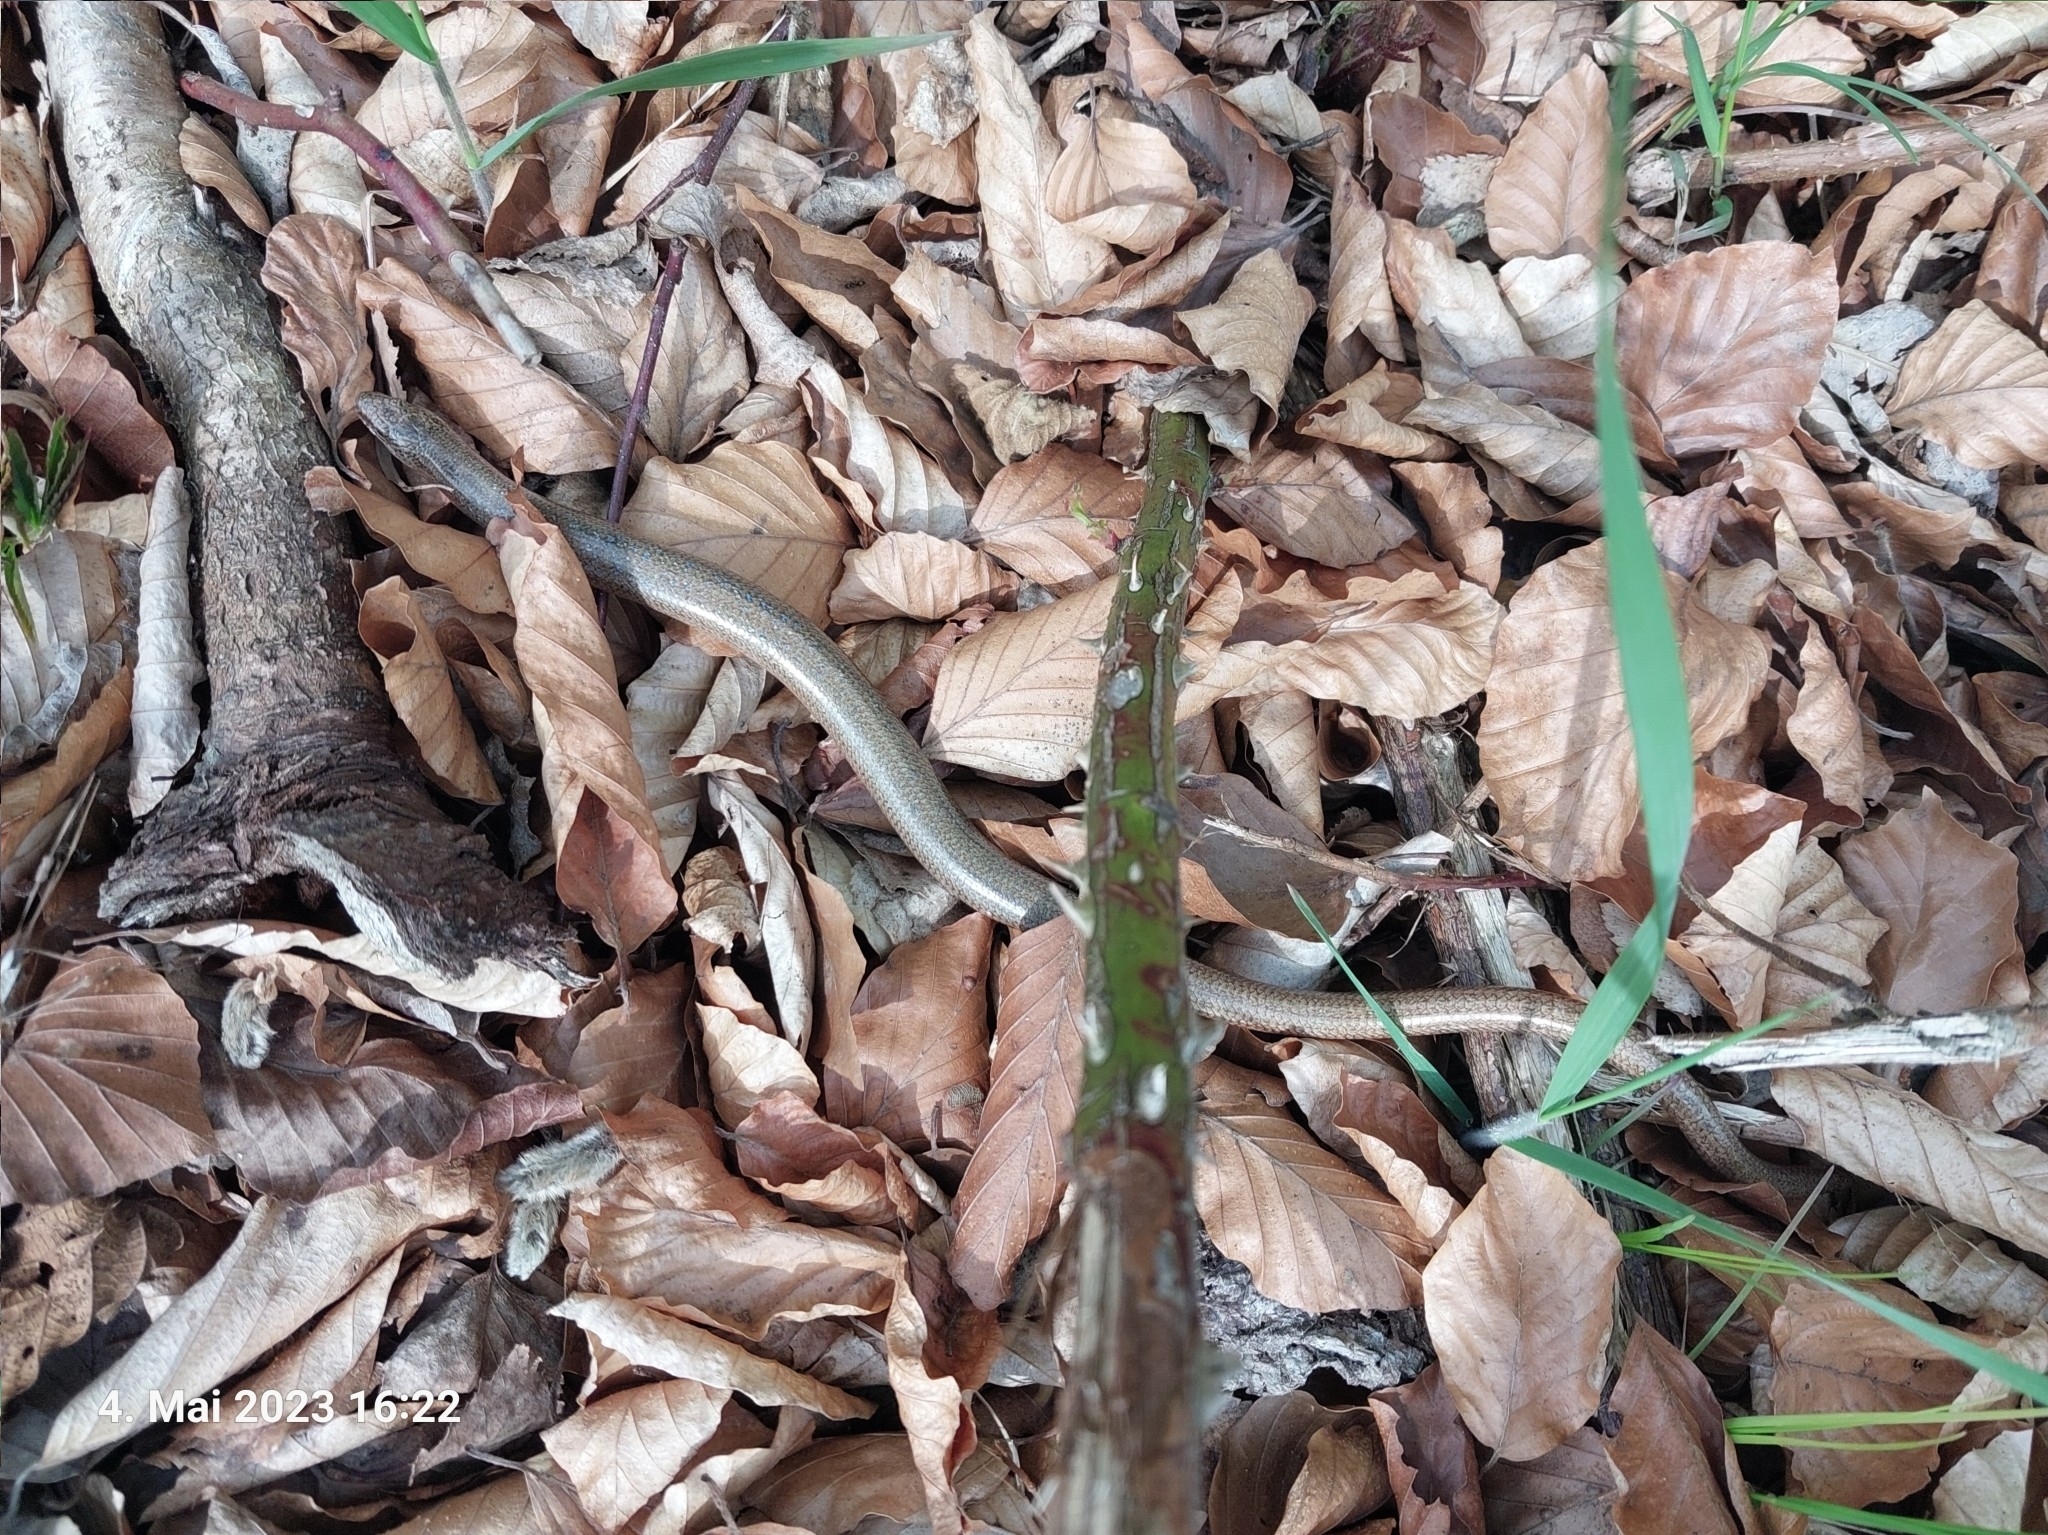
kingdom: Animalia
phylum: Chordata
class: Squamata
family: Anguidae
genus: Anguis
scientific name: Anguis fragilis
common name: Slow worm
